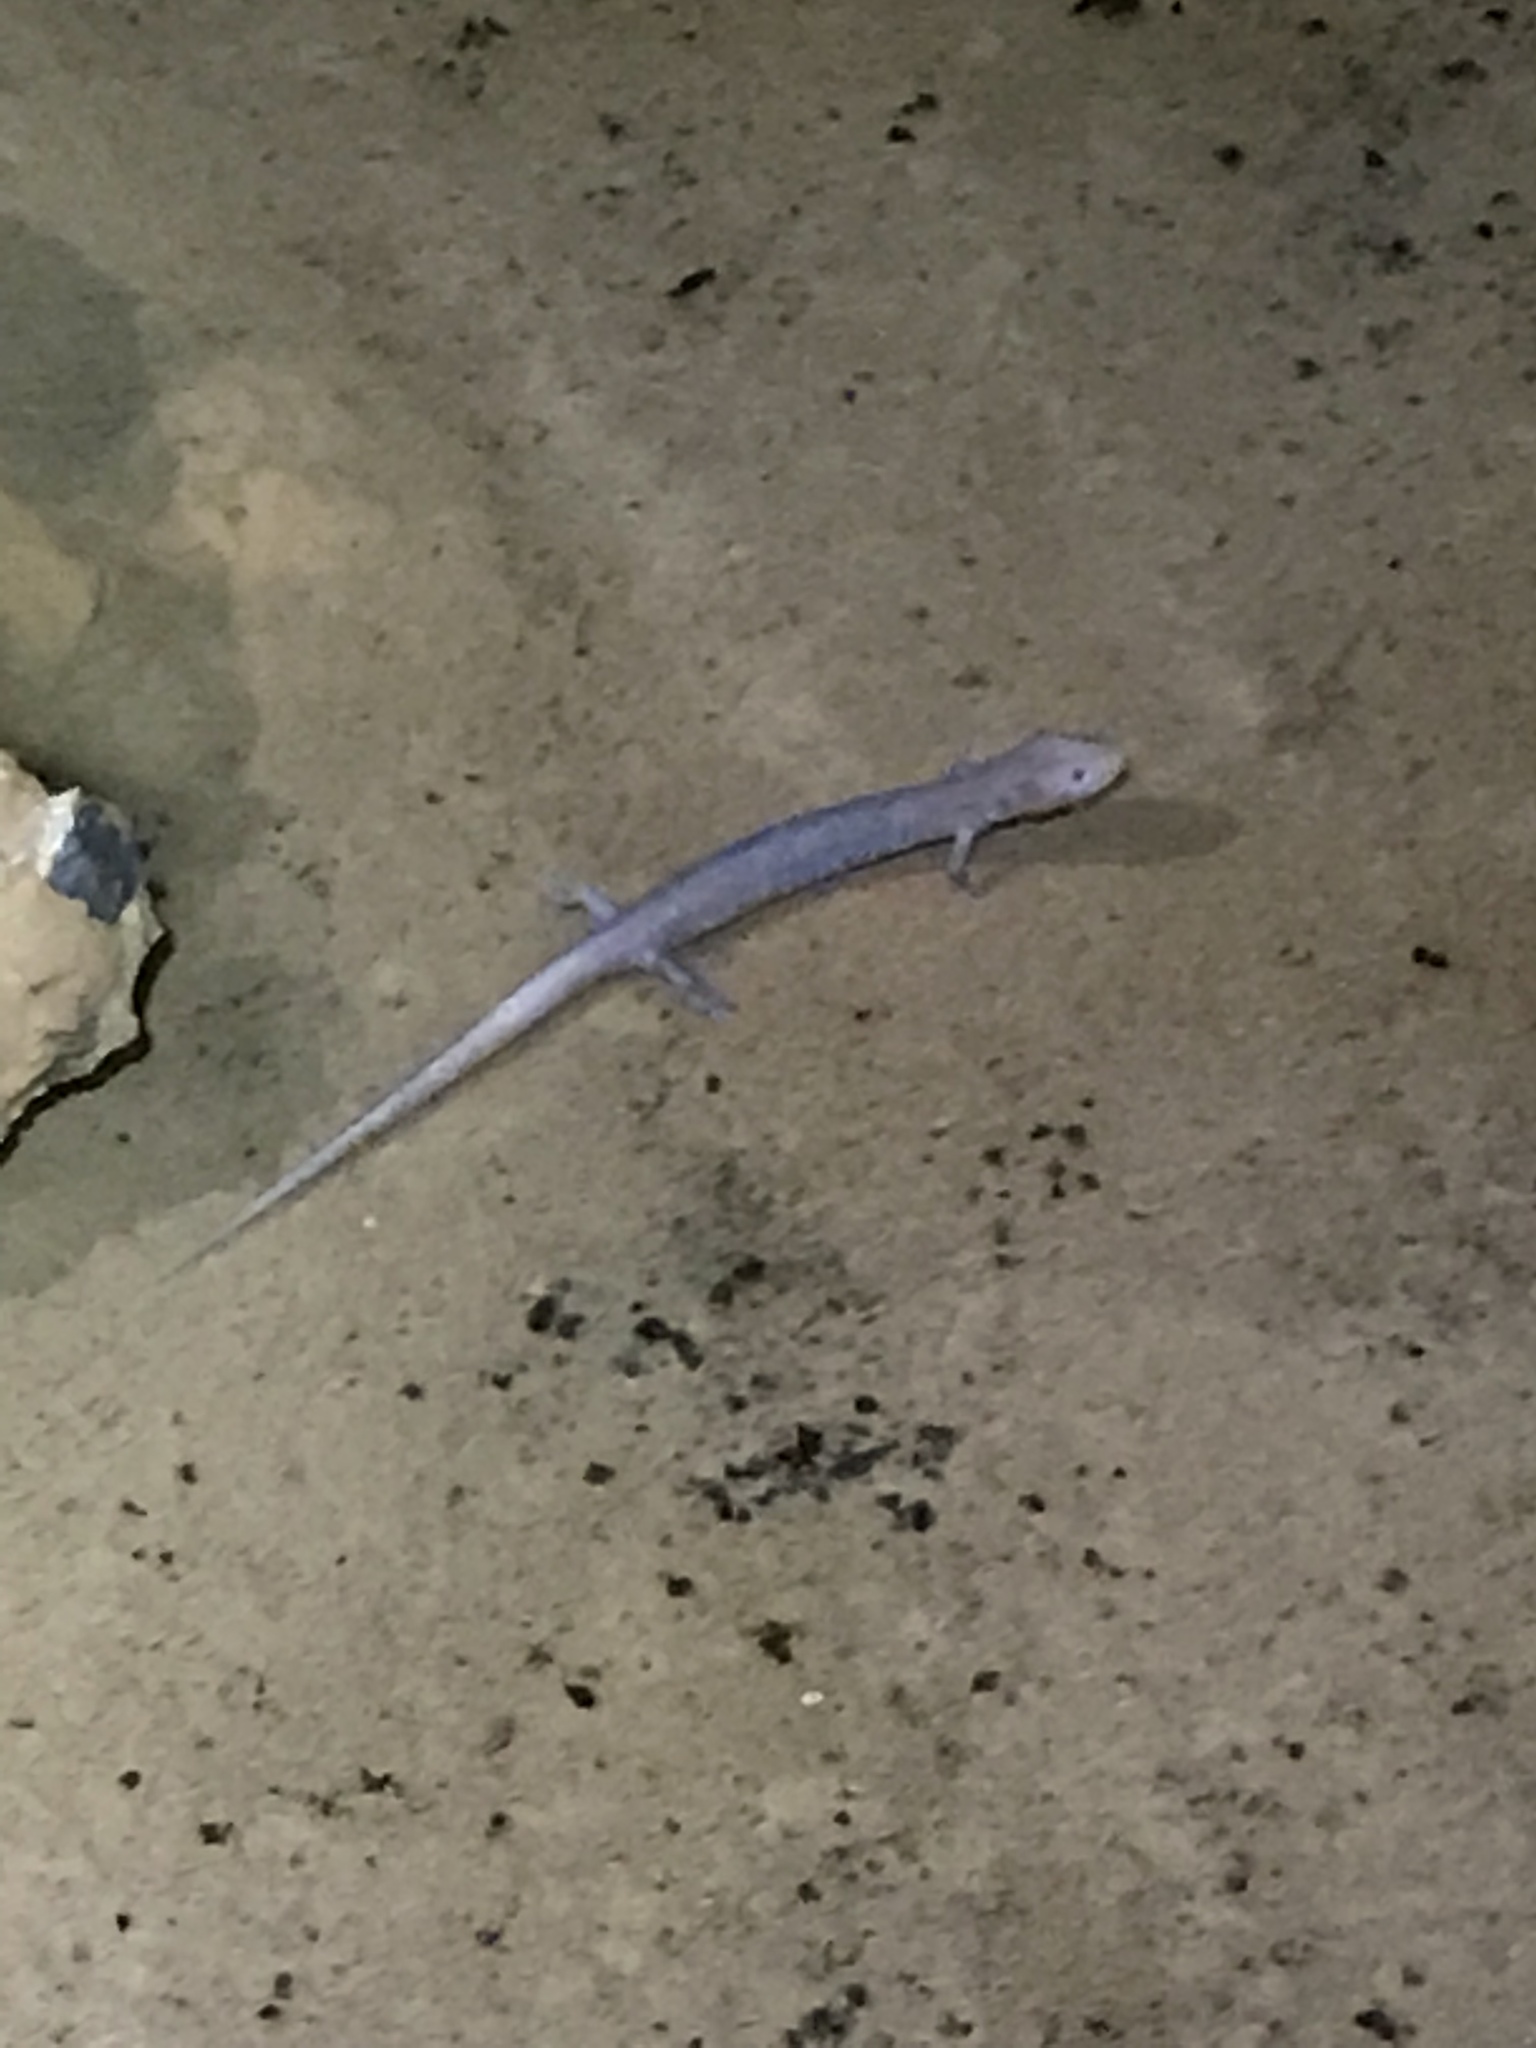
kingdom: Animalia
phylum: Chordata
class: Amphibia
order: Caudata
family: Plethodontidae
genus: Eurycea
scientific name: Eurycea nerea
